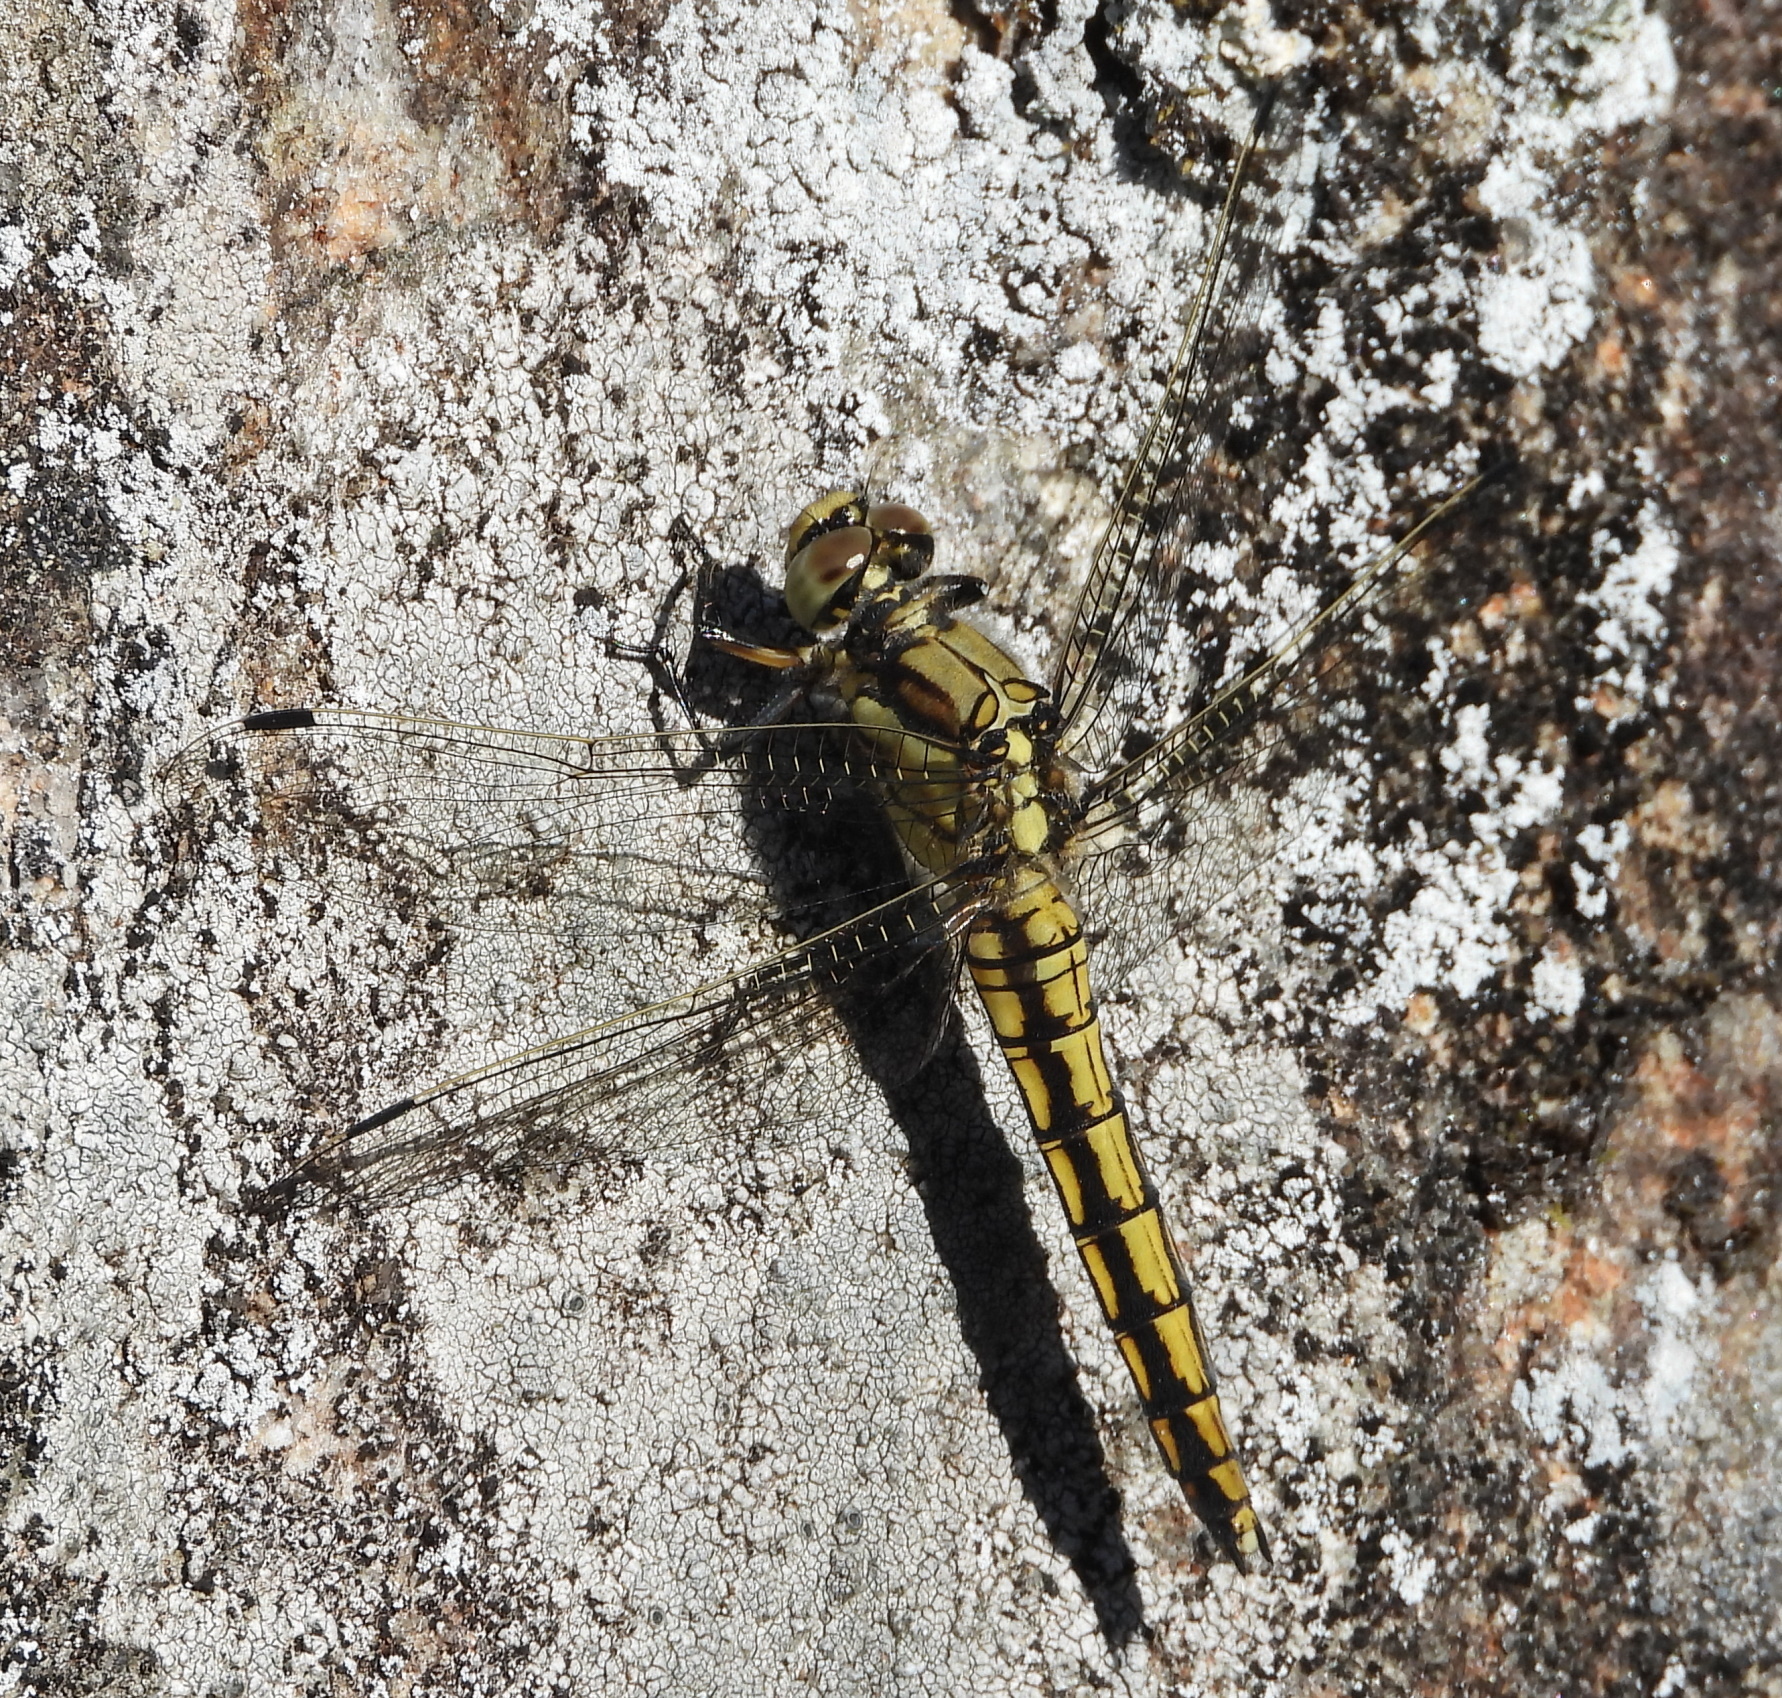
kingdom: Animalia
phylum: Arthropoda
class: Insecta
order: Odonata
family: Libellulidae
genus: Orthetrum
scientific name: Orthetrum cancellatum
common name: Black-tailed skimmer
